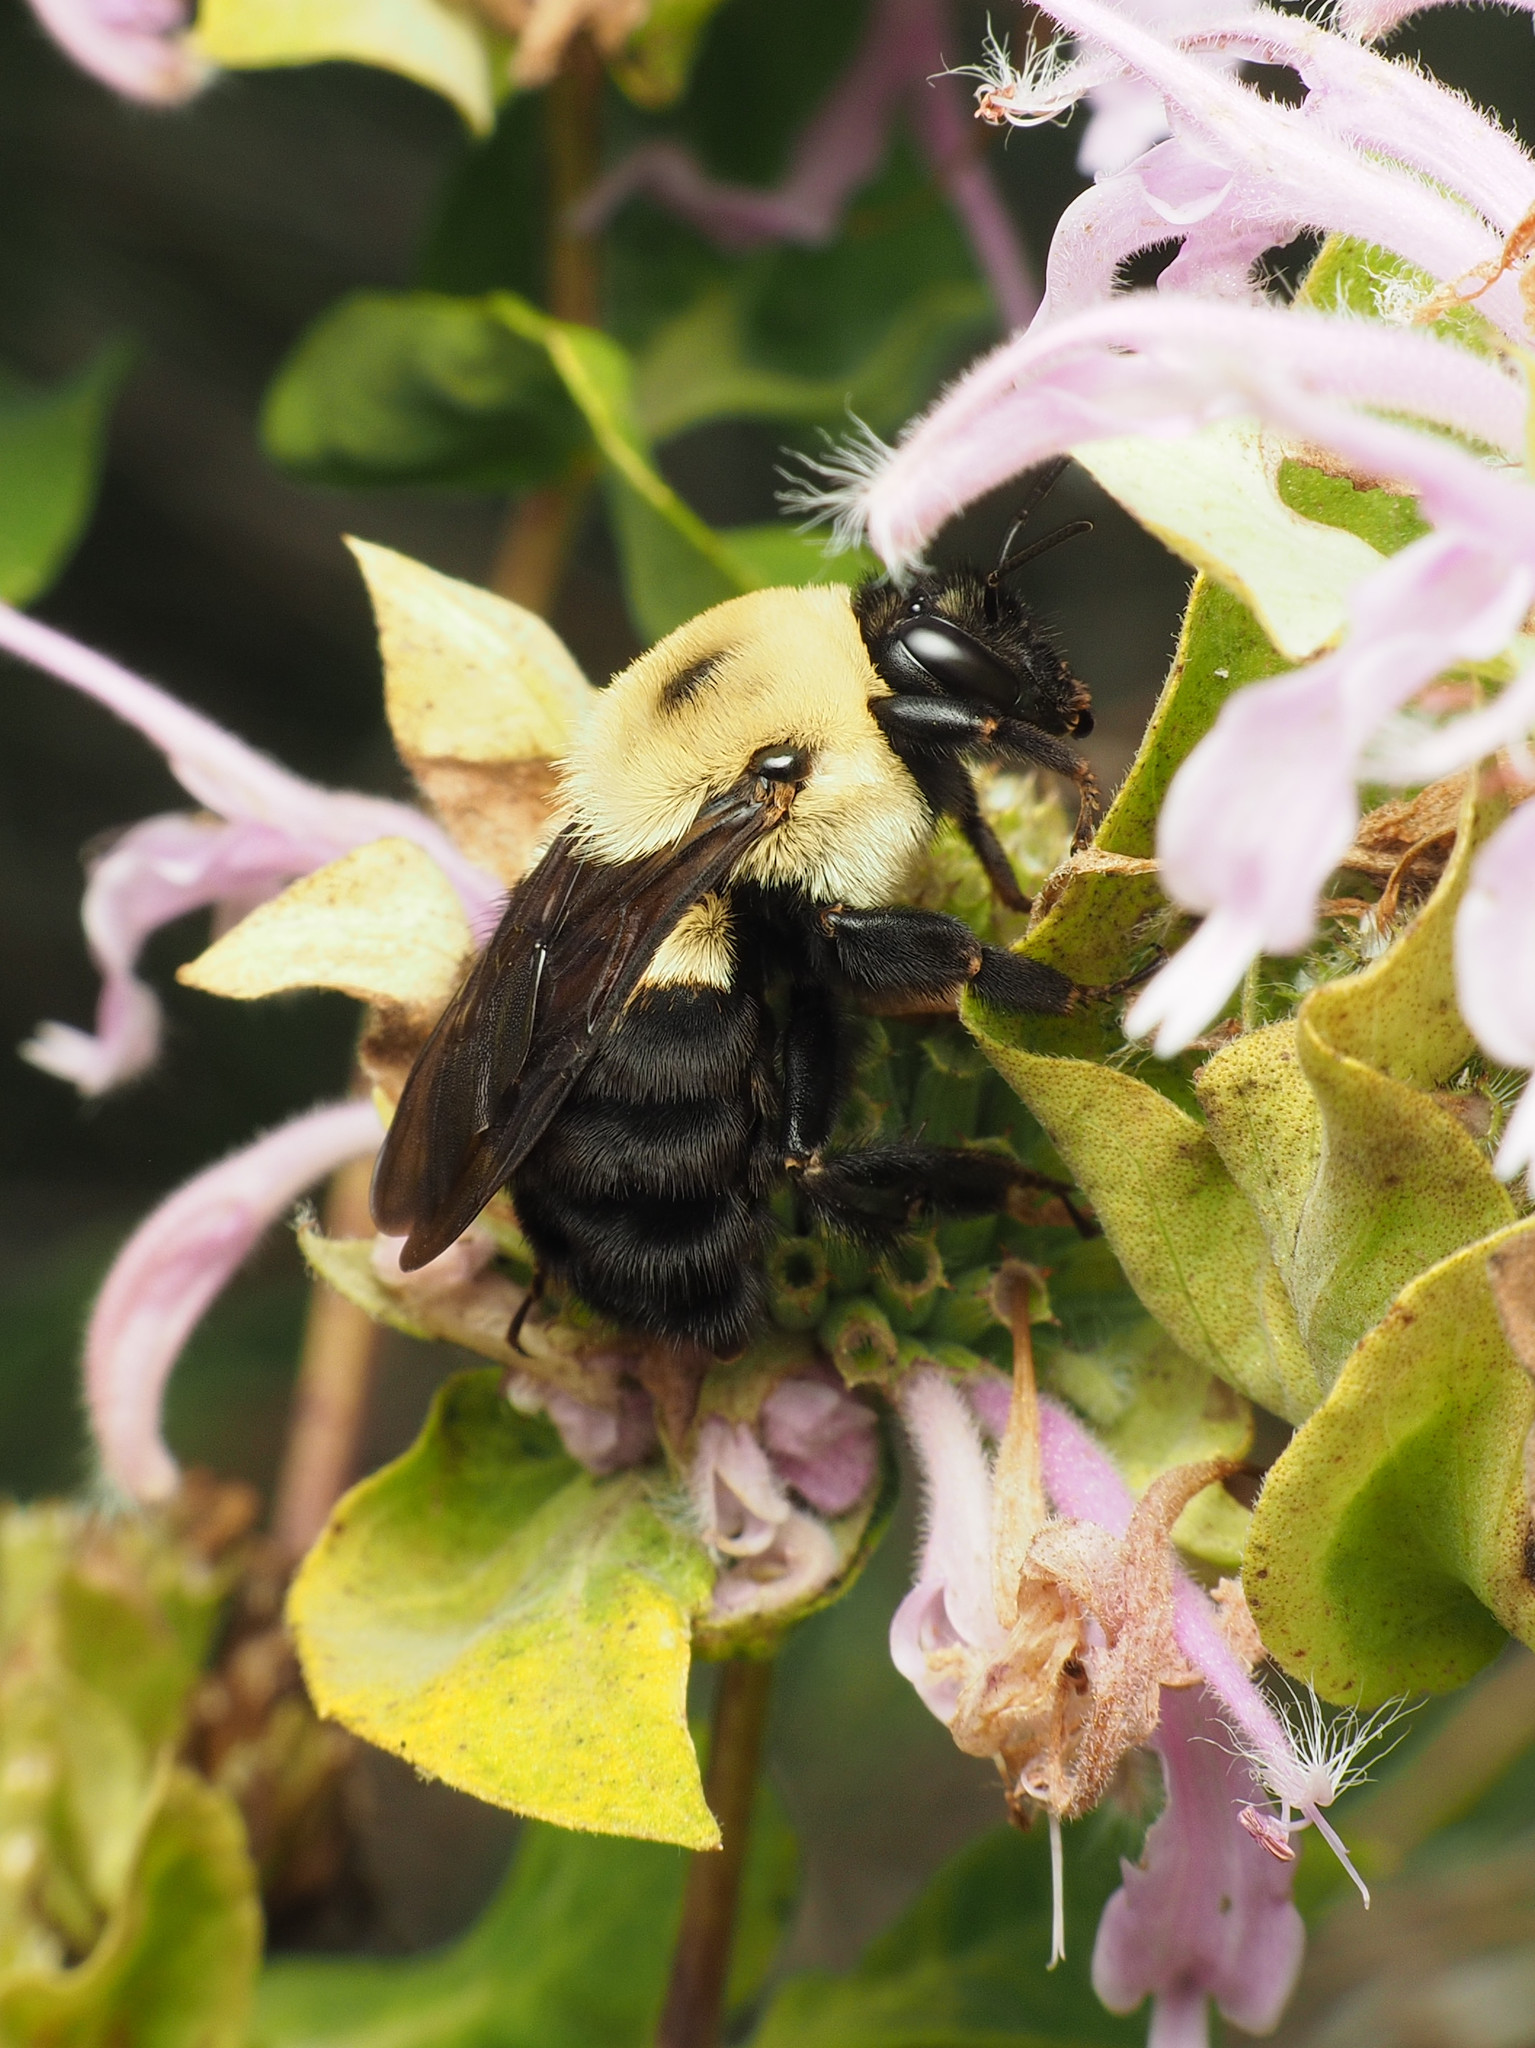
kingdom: Animalia
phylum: Arthropoda
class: Insecta
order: Hymenoptera
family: Apidae
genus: Bombus
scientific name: Bombus griseocollis
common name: Brown-belted bumble bee
